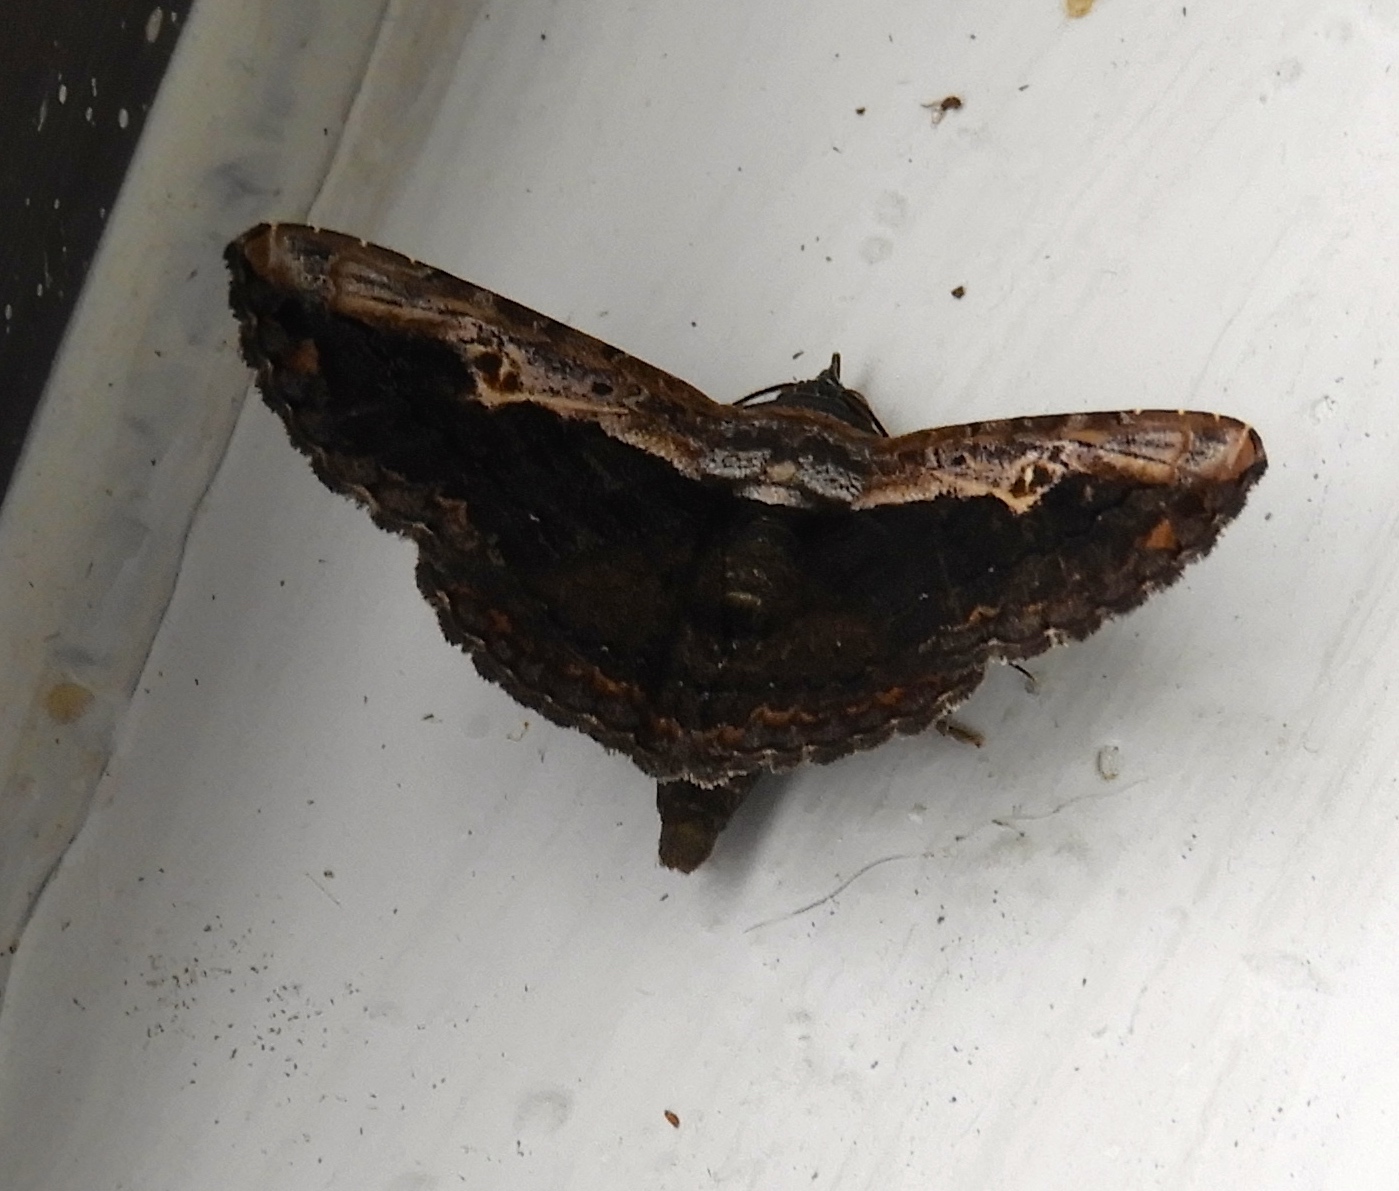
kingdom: Animalia
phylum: Arthropoda
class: Insecta
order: Lepidoptera
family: Erebidae
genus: Selenisa
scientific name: Selenisa sueroides
